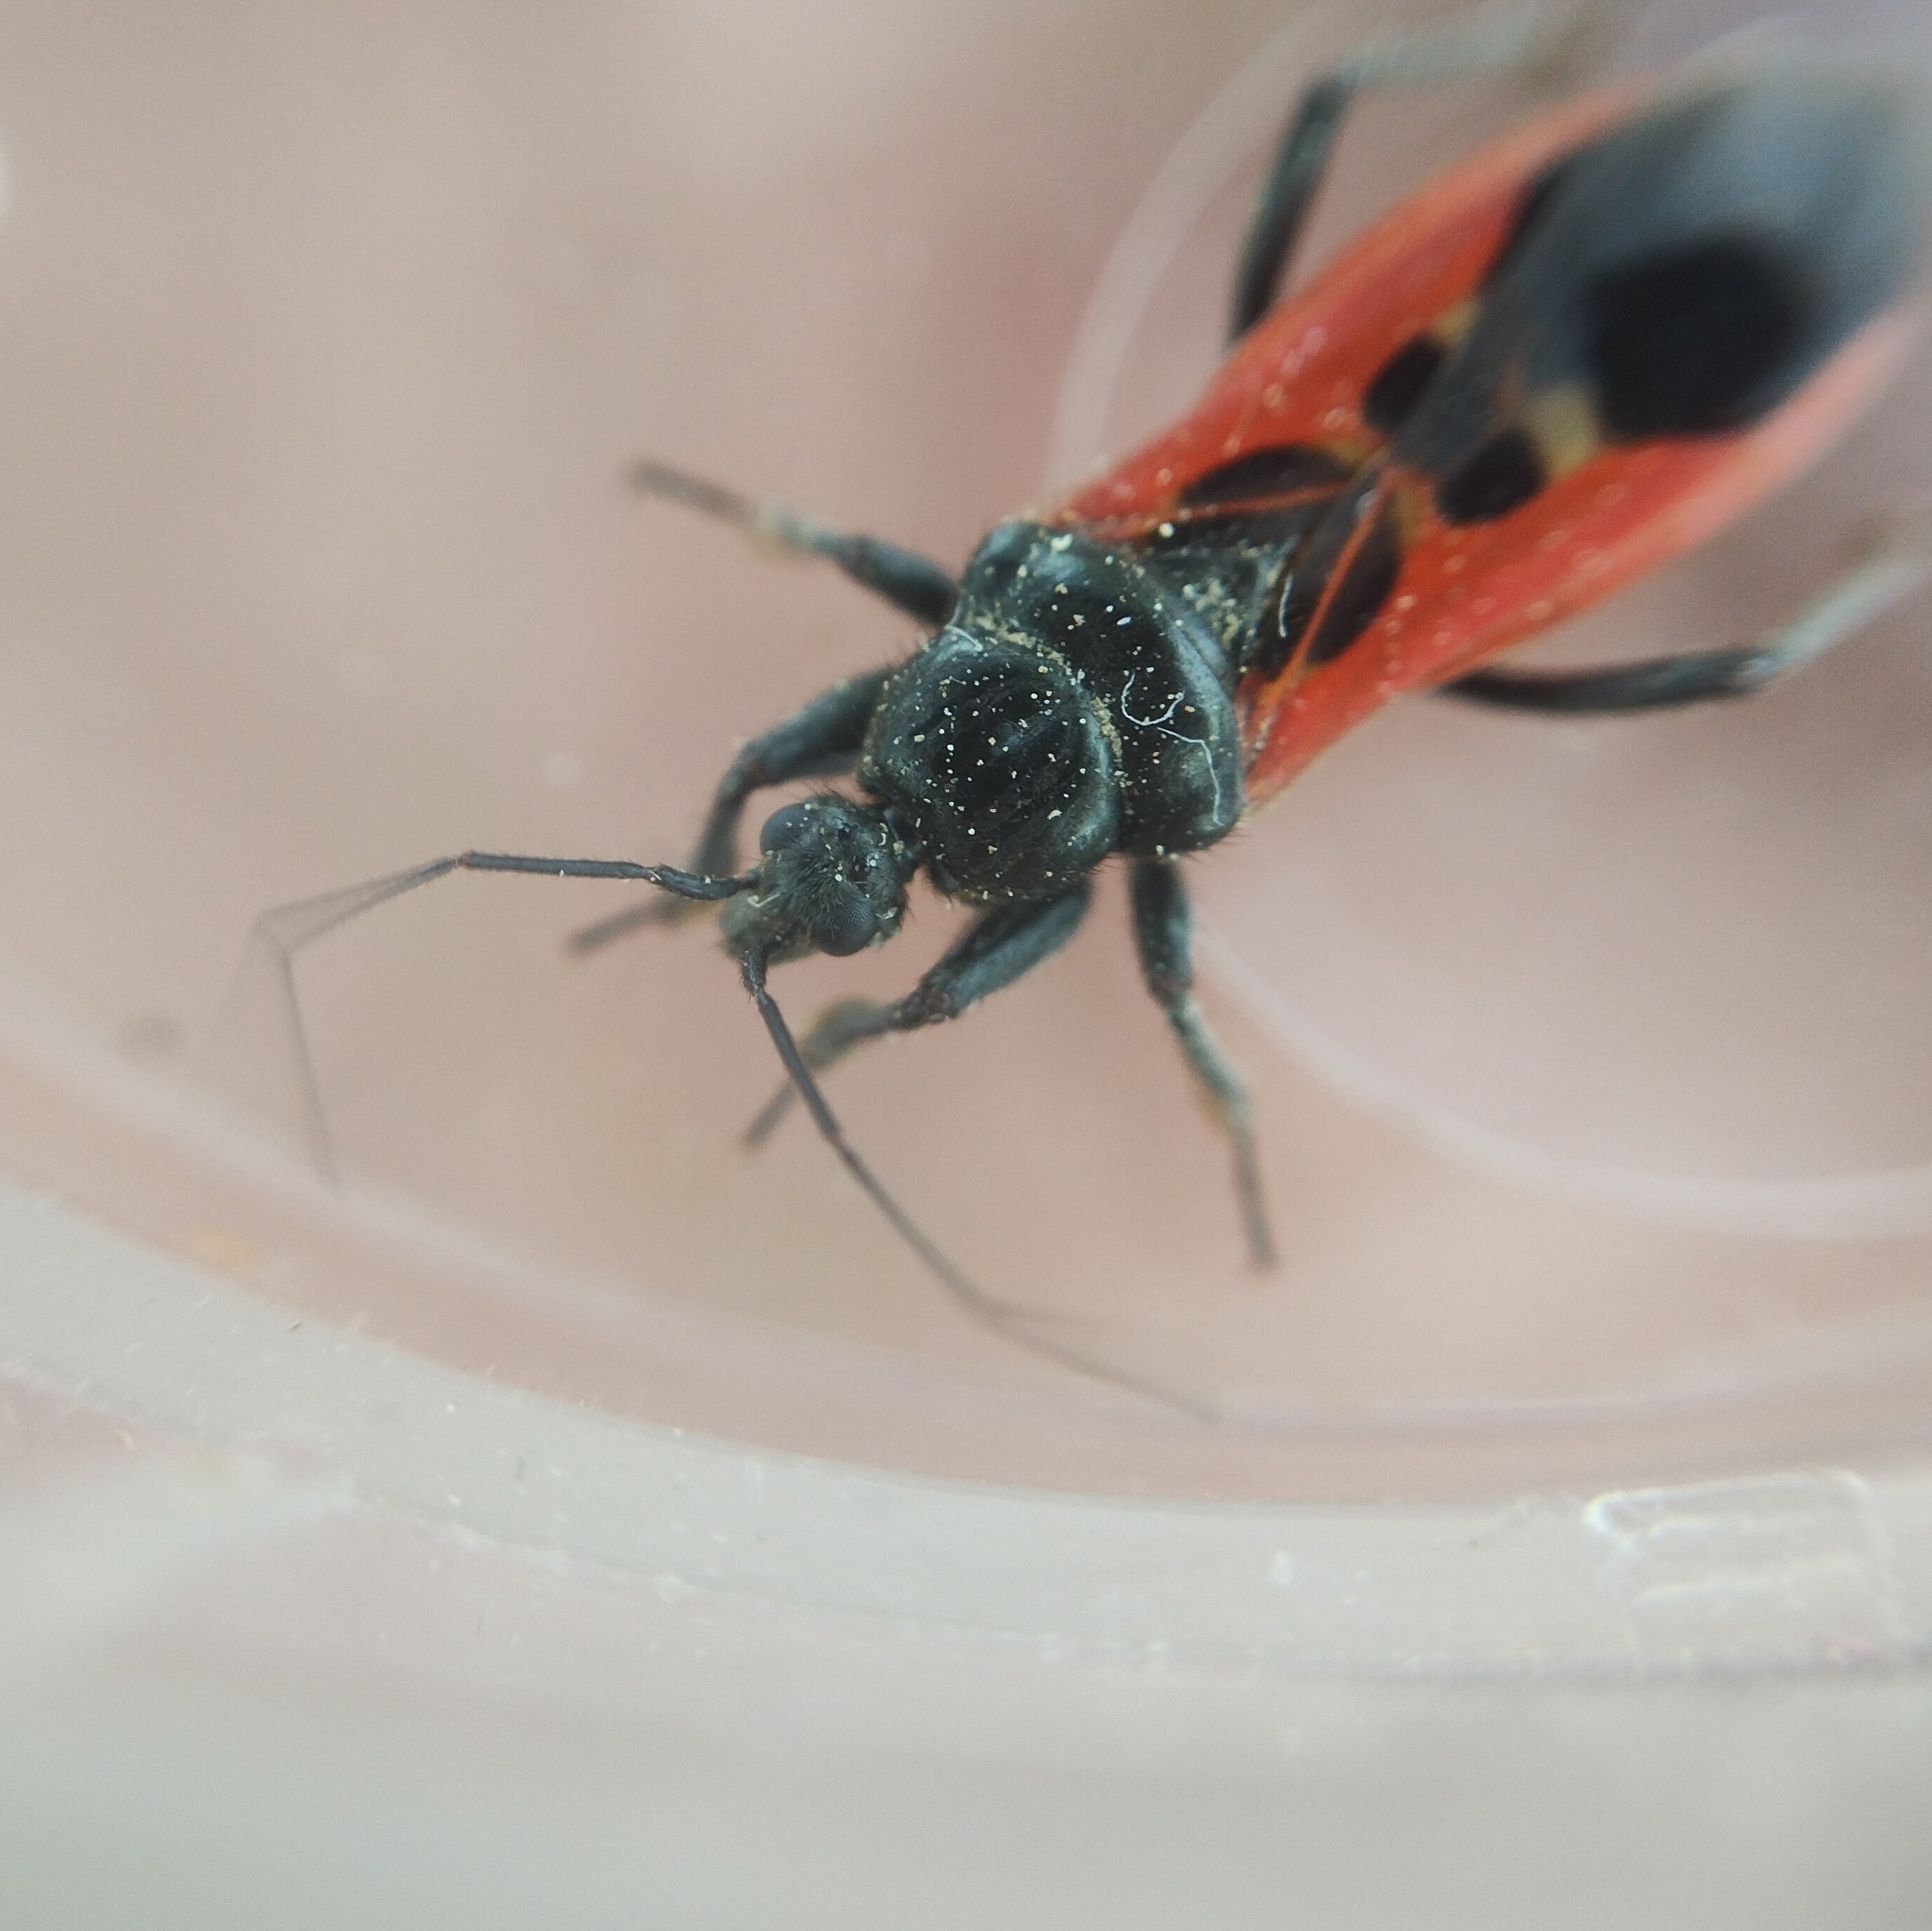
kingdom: Animalia
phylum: Arthropoda
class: Insecta
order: Hemiptera
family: Reduviidae
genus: Peirates
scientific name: Peirates hybridus
